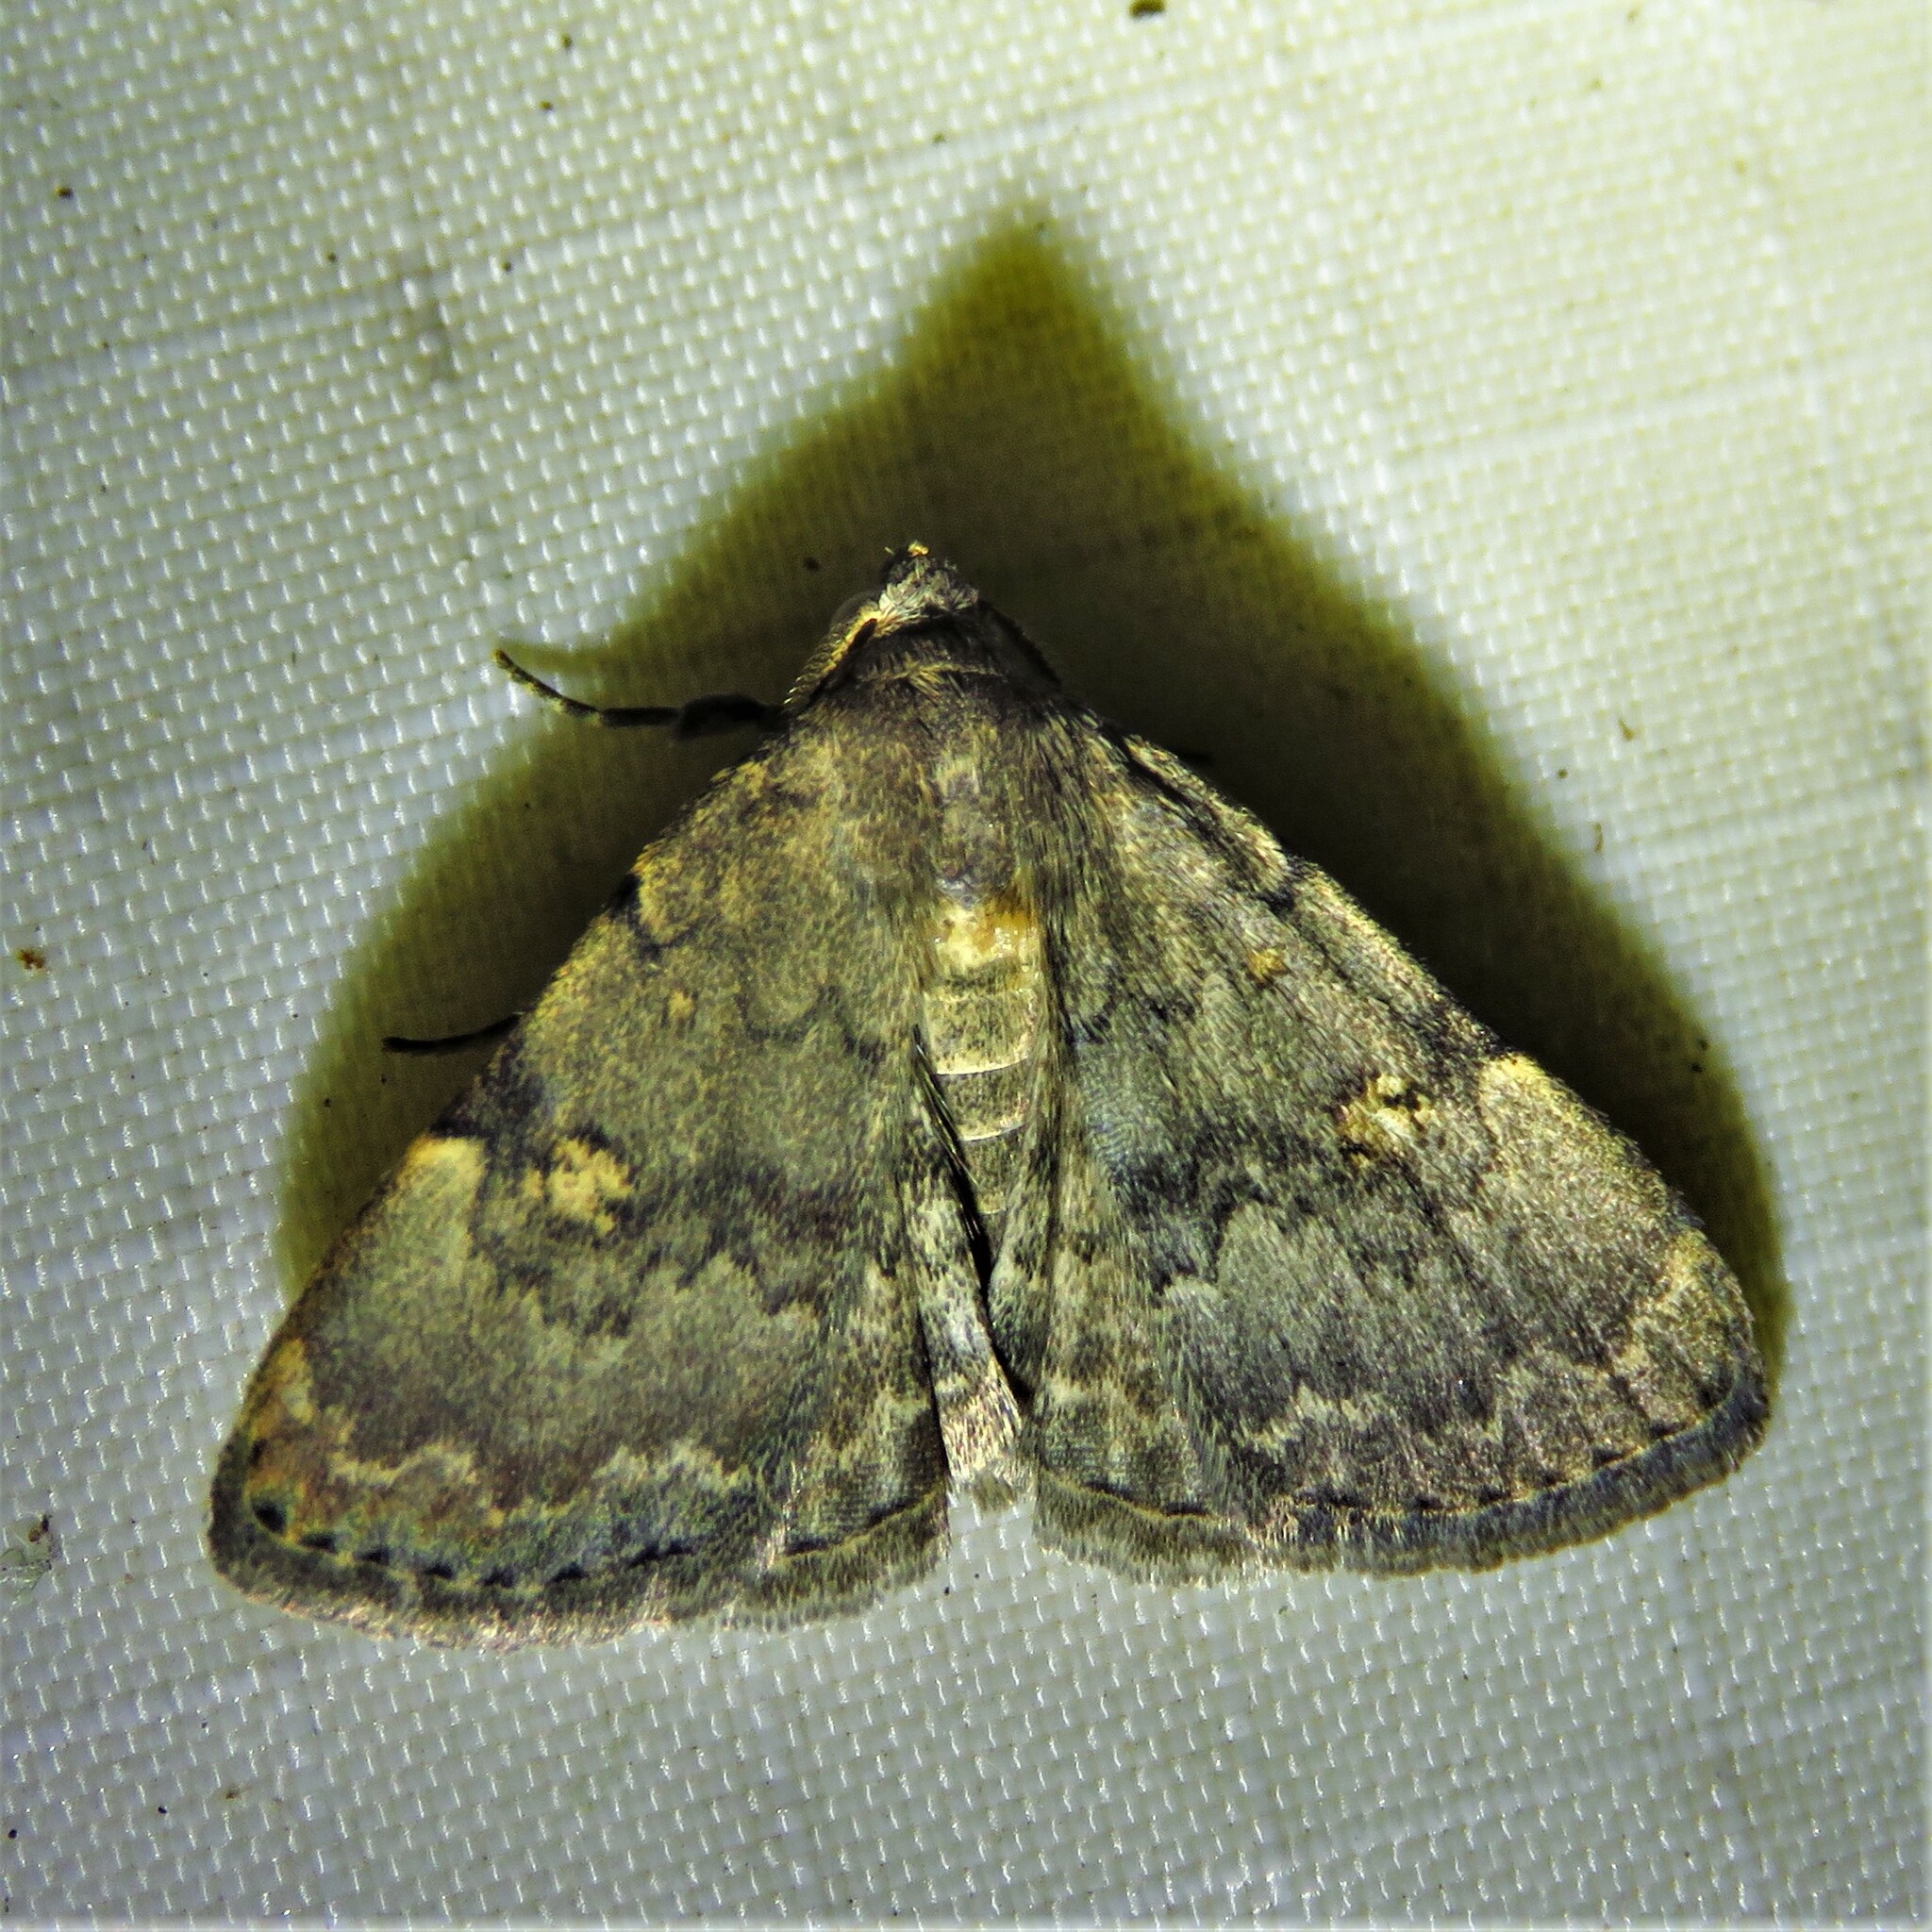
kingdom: Animalia
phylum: Arthropoda
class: Insecta
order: Lepidoptera
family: Erebidae
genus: Idia
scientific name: Idia aemula
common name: Common idia moth
